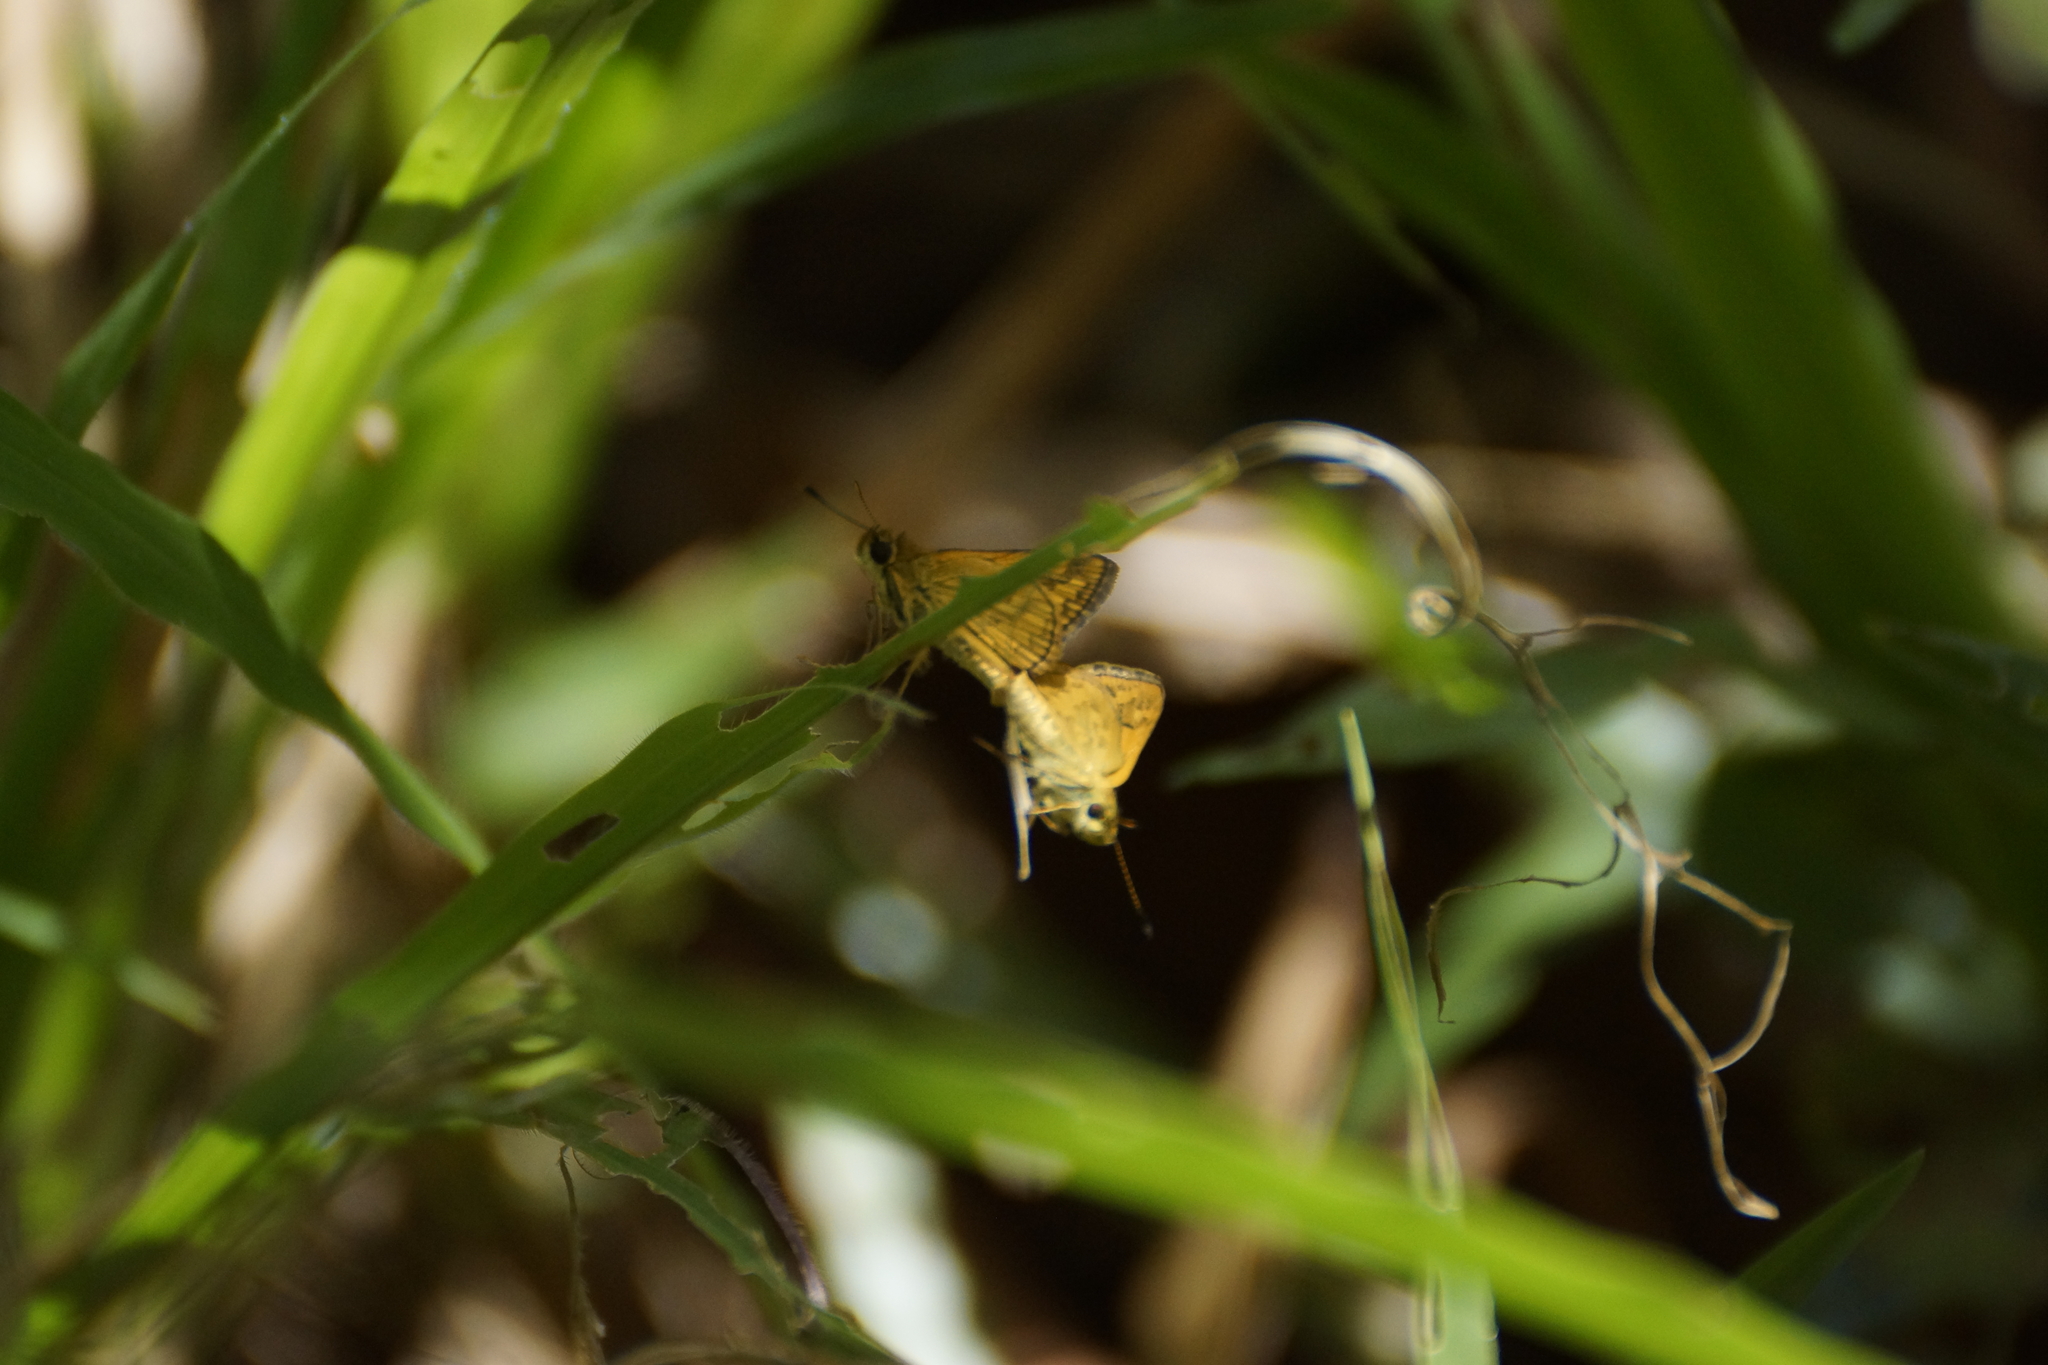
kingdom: Animalia
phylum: Arthropoda
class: Insecta
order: Lepidoptera
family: Hesperiidae
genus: Suniana
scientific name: Suniana sunias
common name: Wide-brand grass-dart
